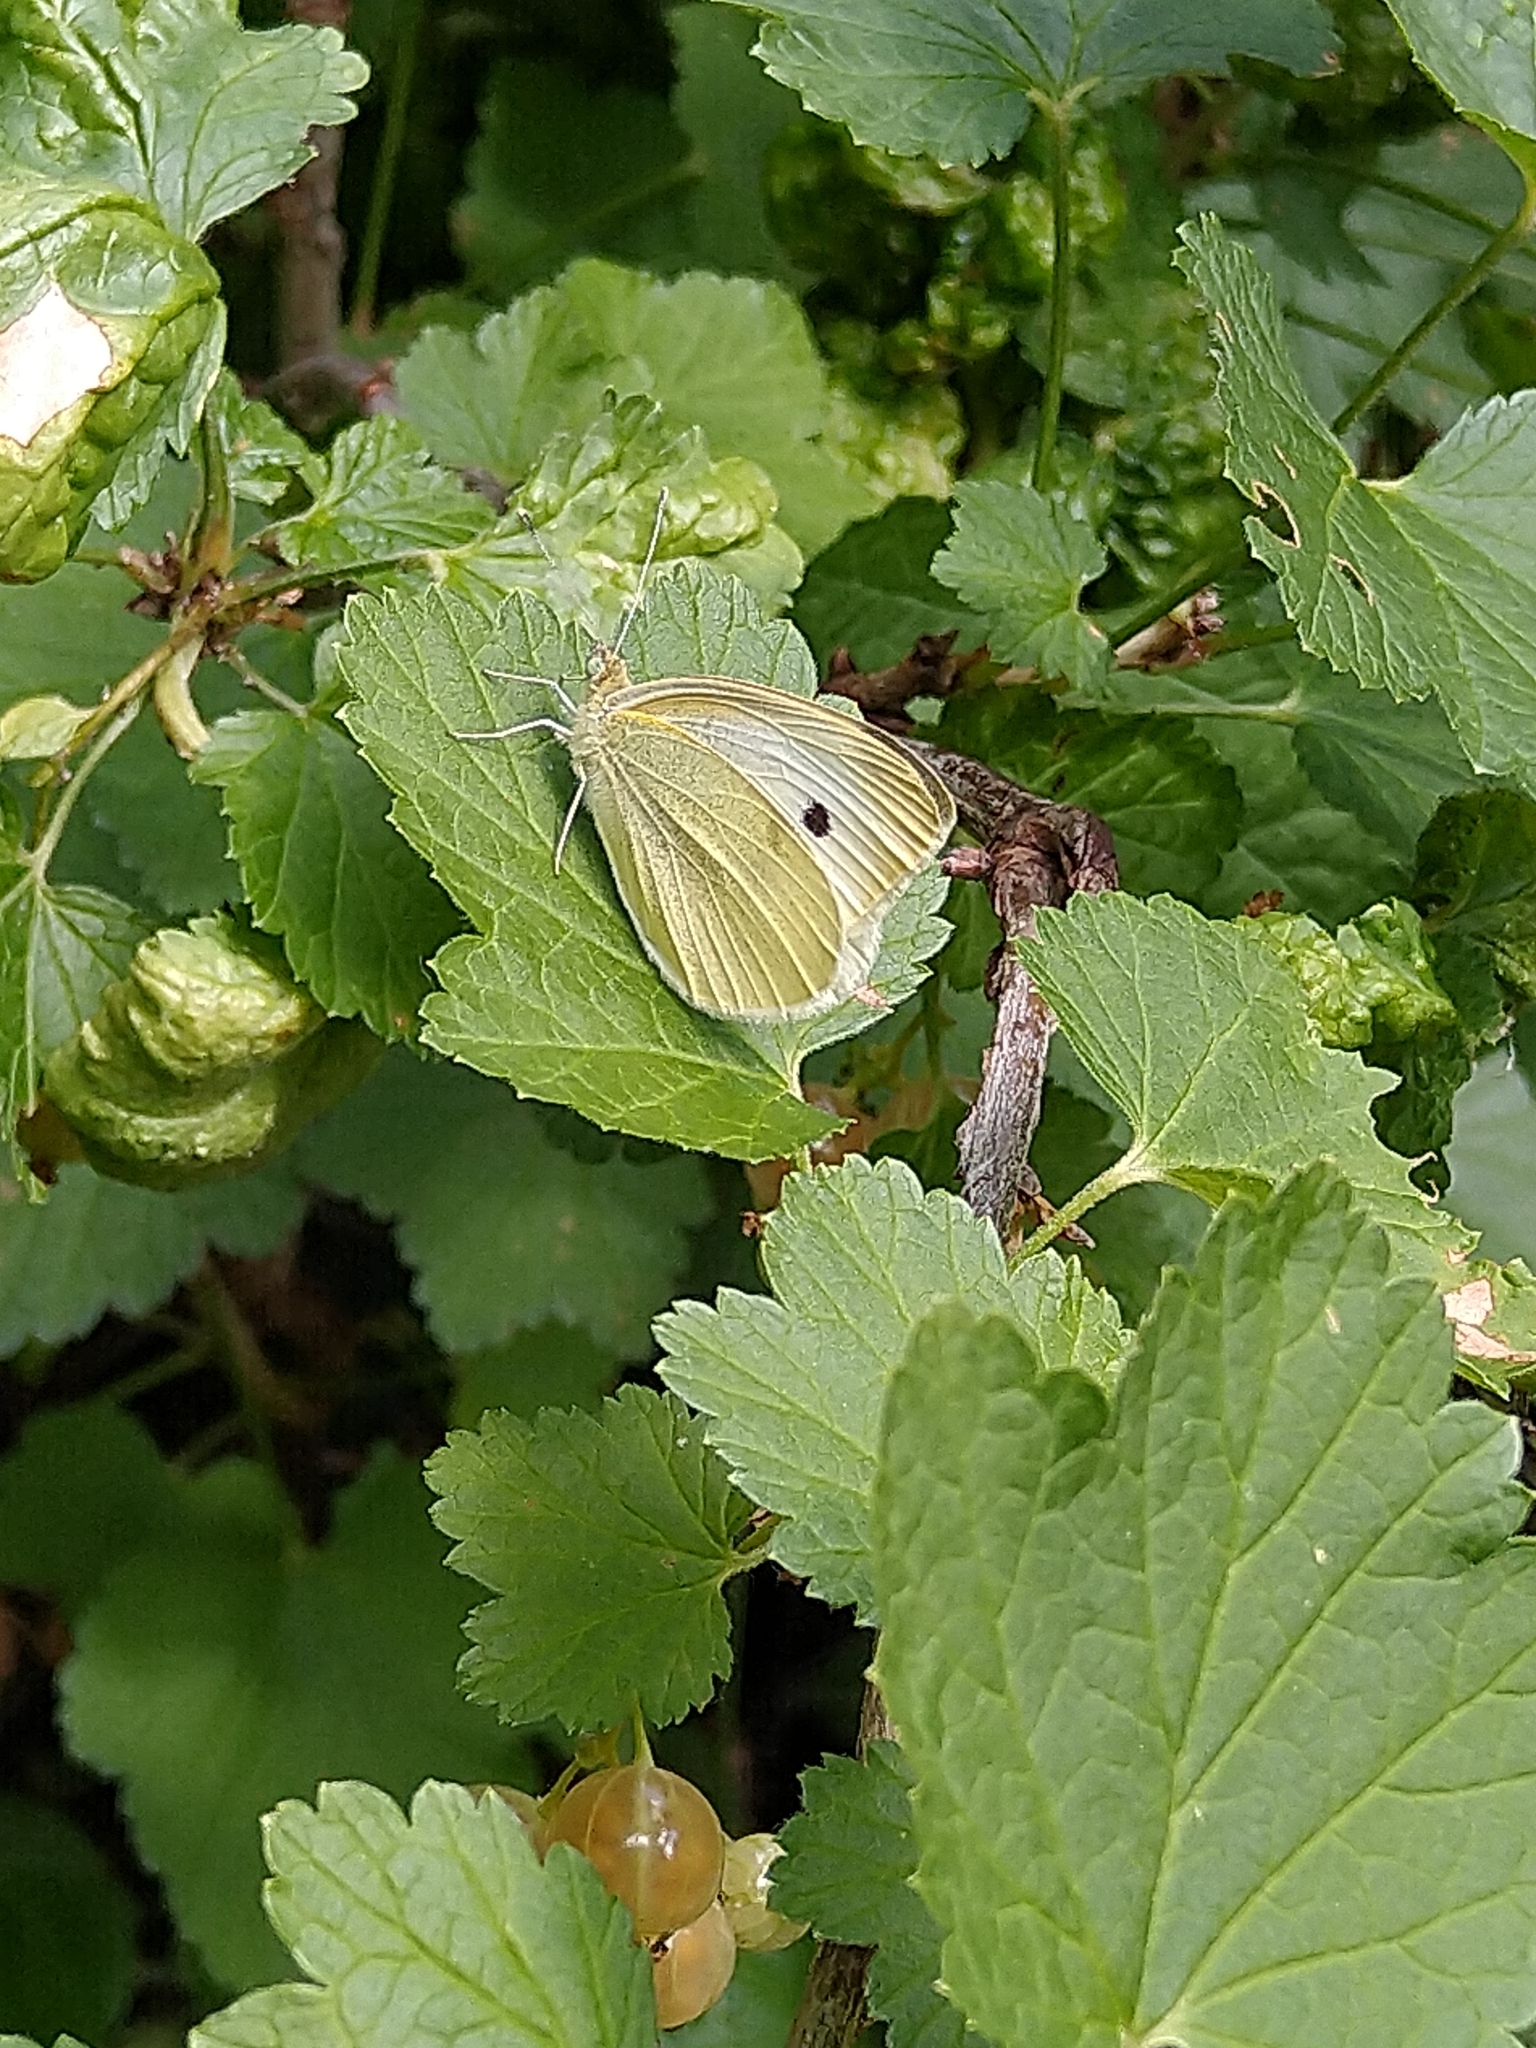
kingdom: Animalia
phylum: Arthropoda
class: Insecta
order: Lepidoptera
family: Pieridae
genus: Pieris
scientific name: Pieris rapae
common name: Small white
